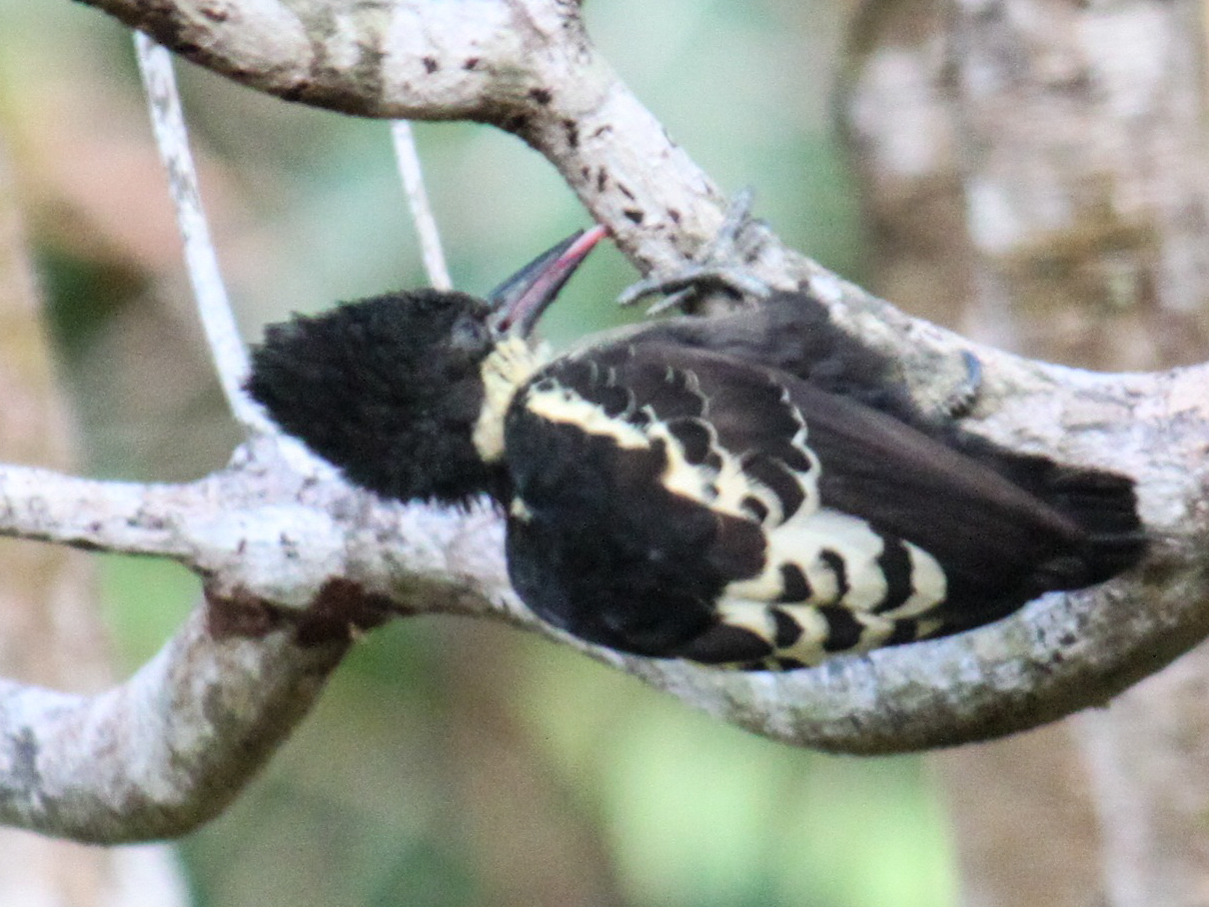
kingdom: Animalia
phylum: Chordata
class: Aves
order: Piciformes
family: Picidae
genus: Hemicircus
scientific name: Hemicircus canente
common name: Heart-spotted woodpecker
